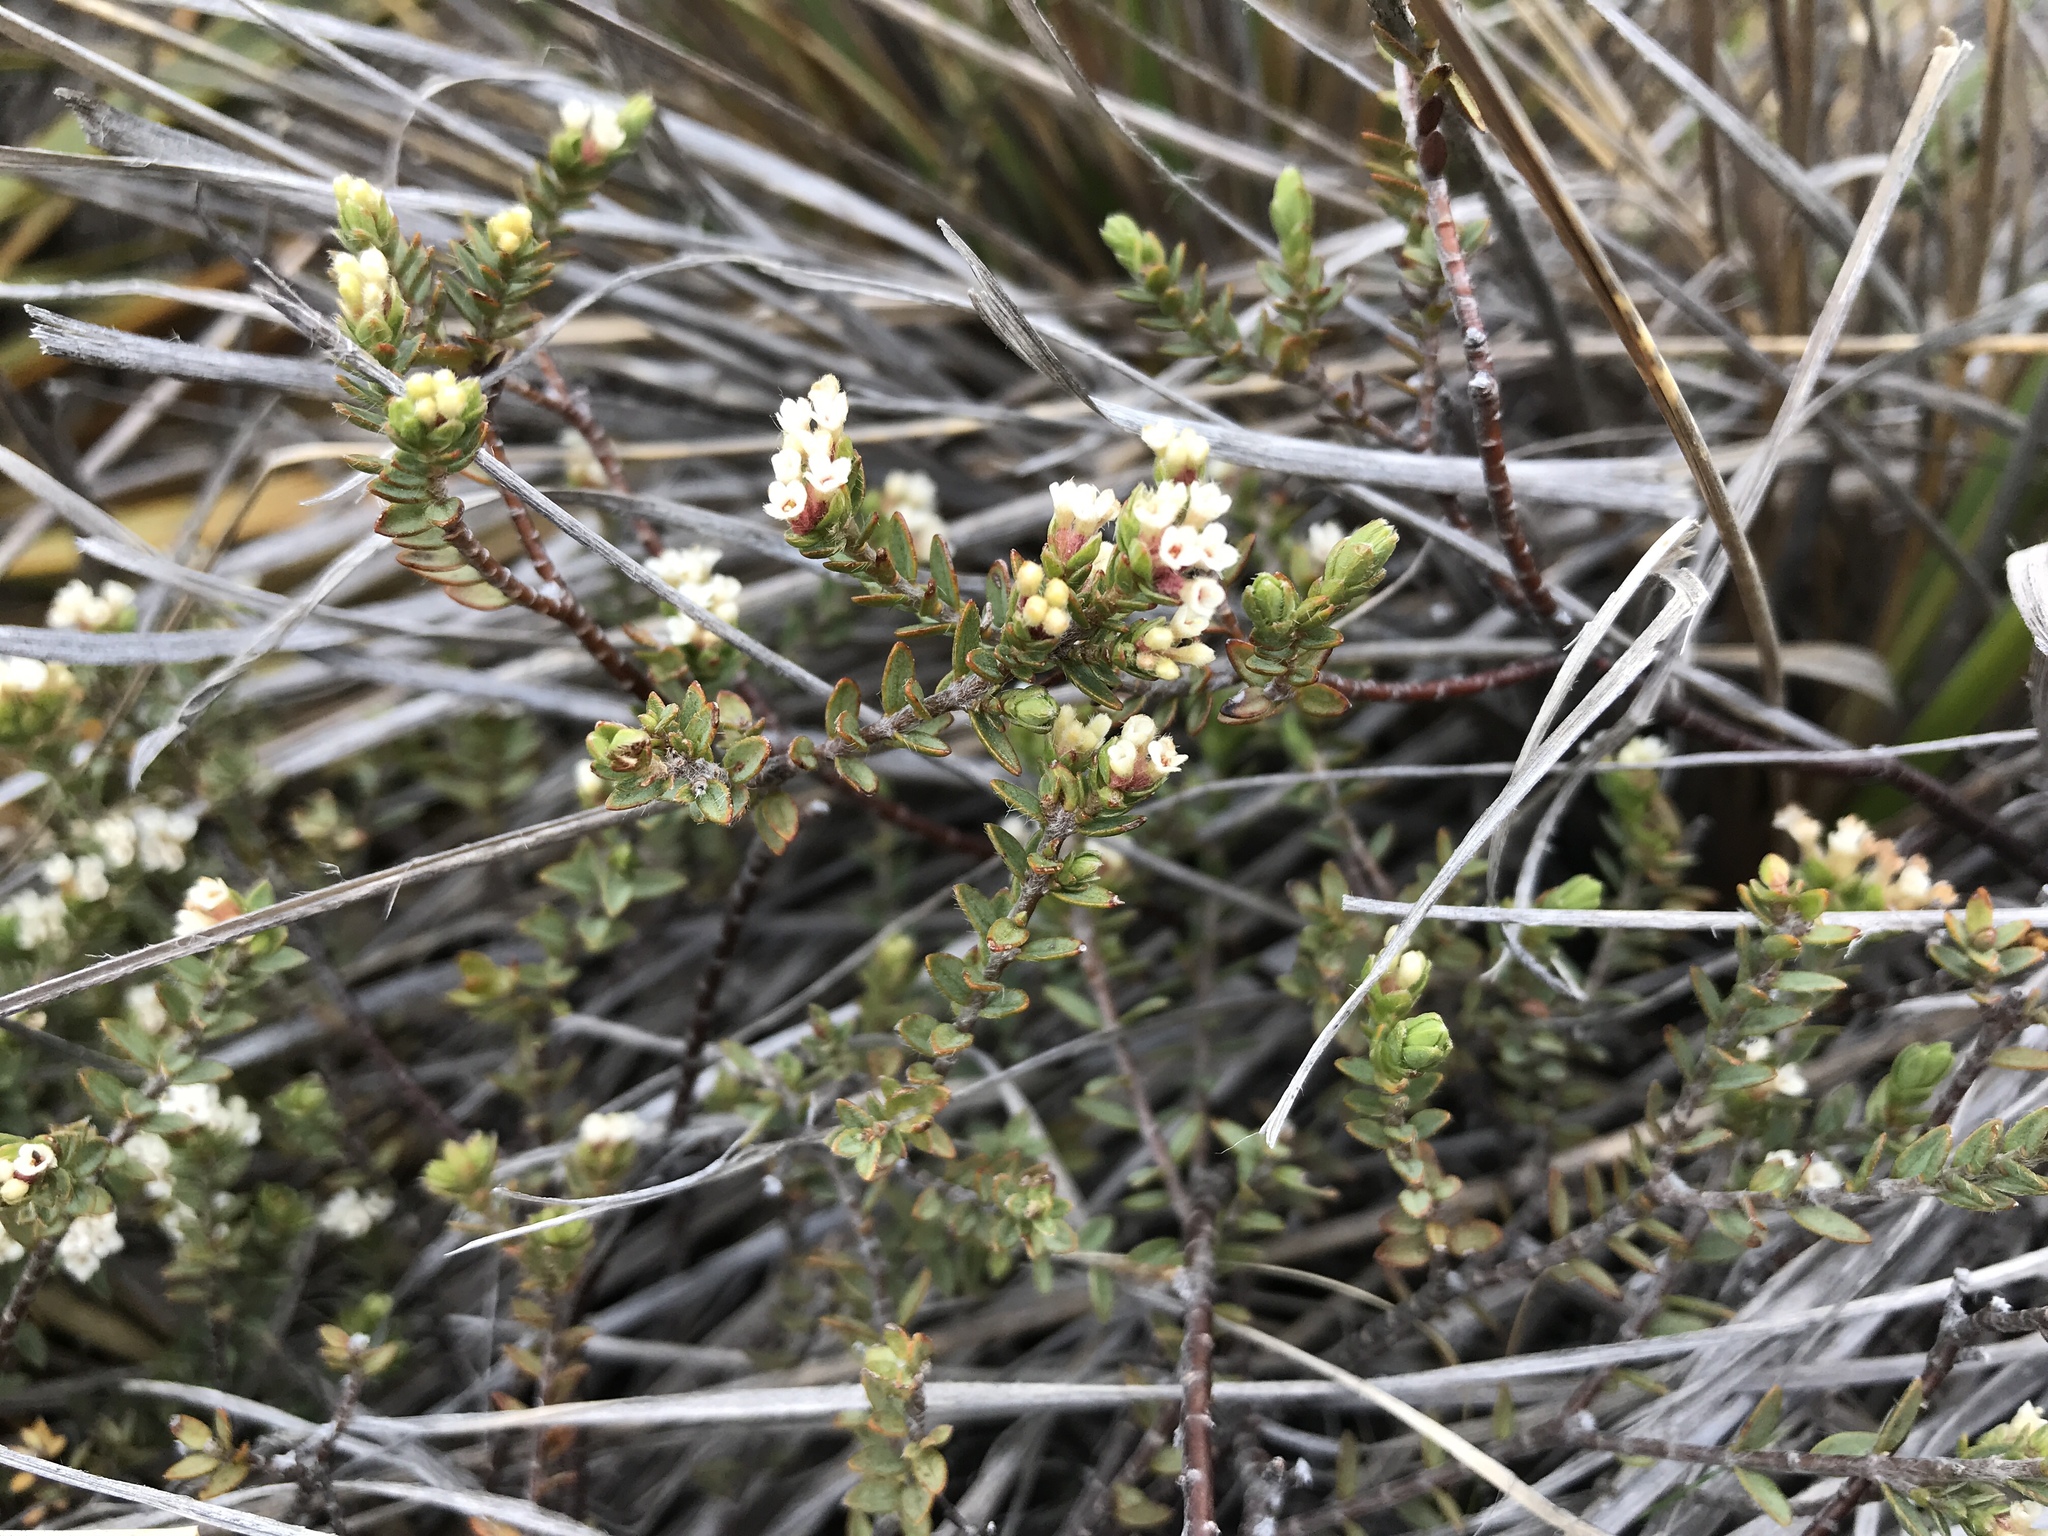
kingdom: Plantae
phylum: Tracheophyta
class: Magnoliopsida
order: Malvales
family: Thymelaeaceae
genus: Pimelea
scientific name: Pimelea oreophila
